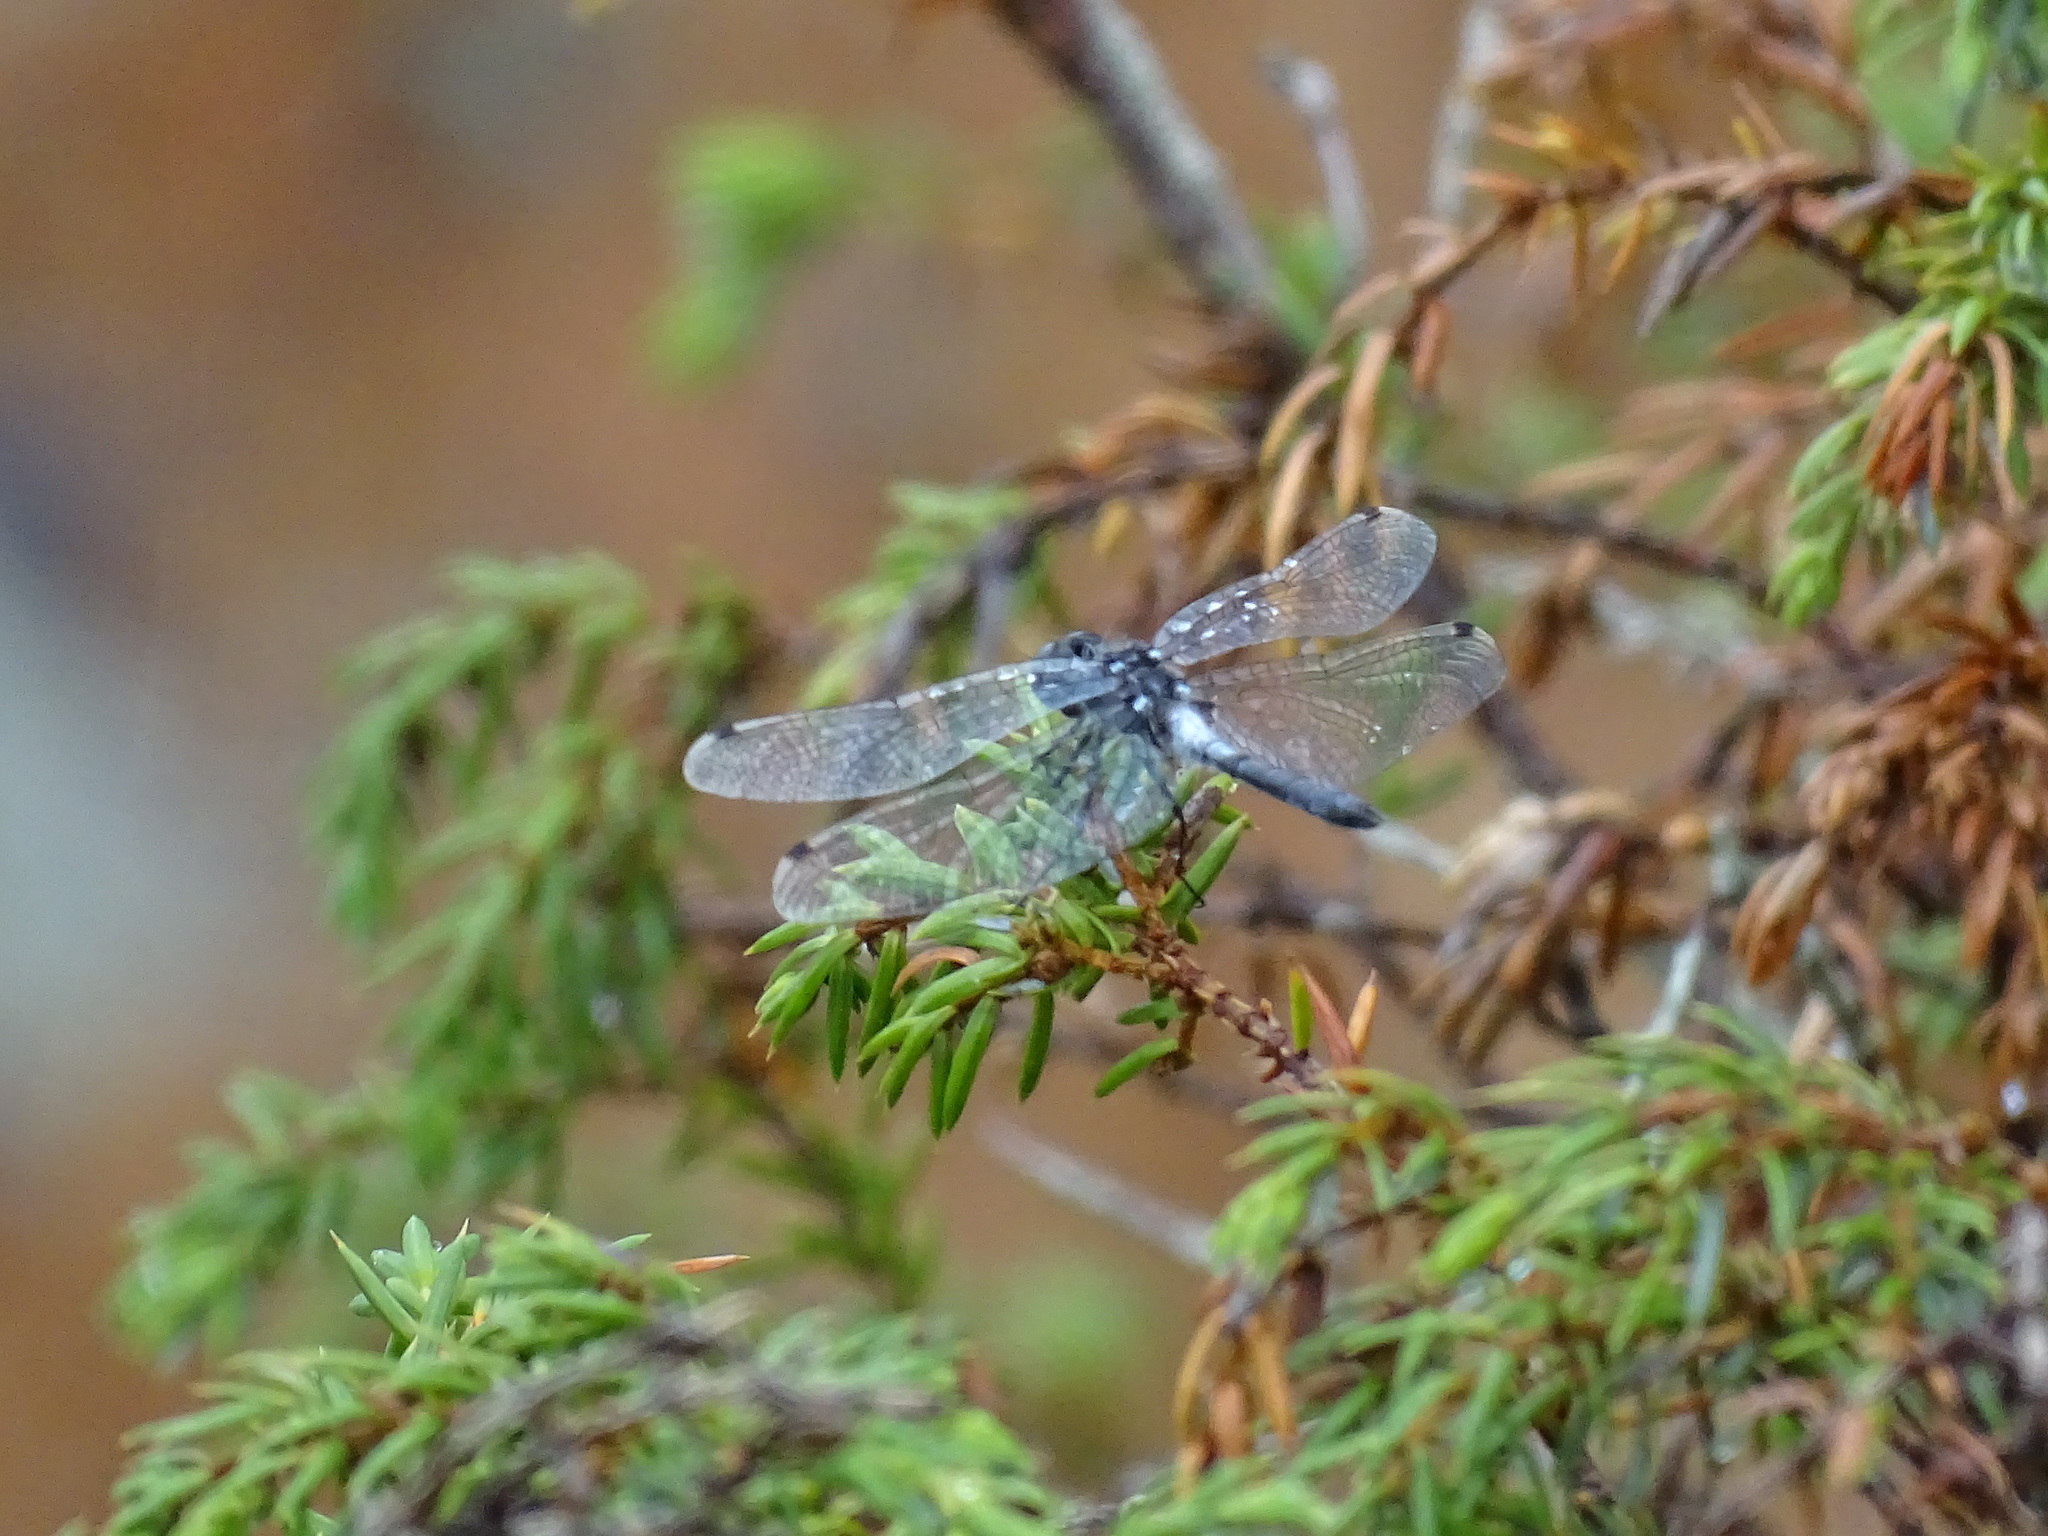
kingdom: Animalia
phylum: Arthropoda
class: Insecta
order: Odonata
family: Libellulidae
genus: Leucorrhinia
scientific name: Leucorrhinia frigida
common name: Frosted whiteface
